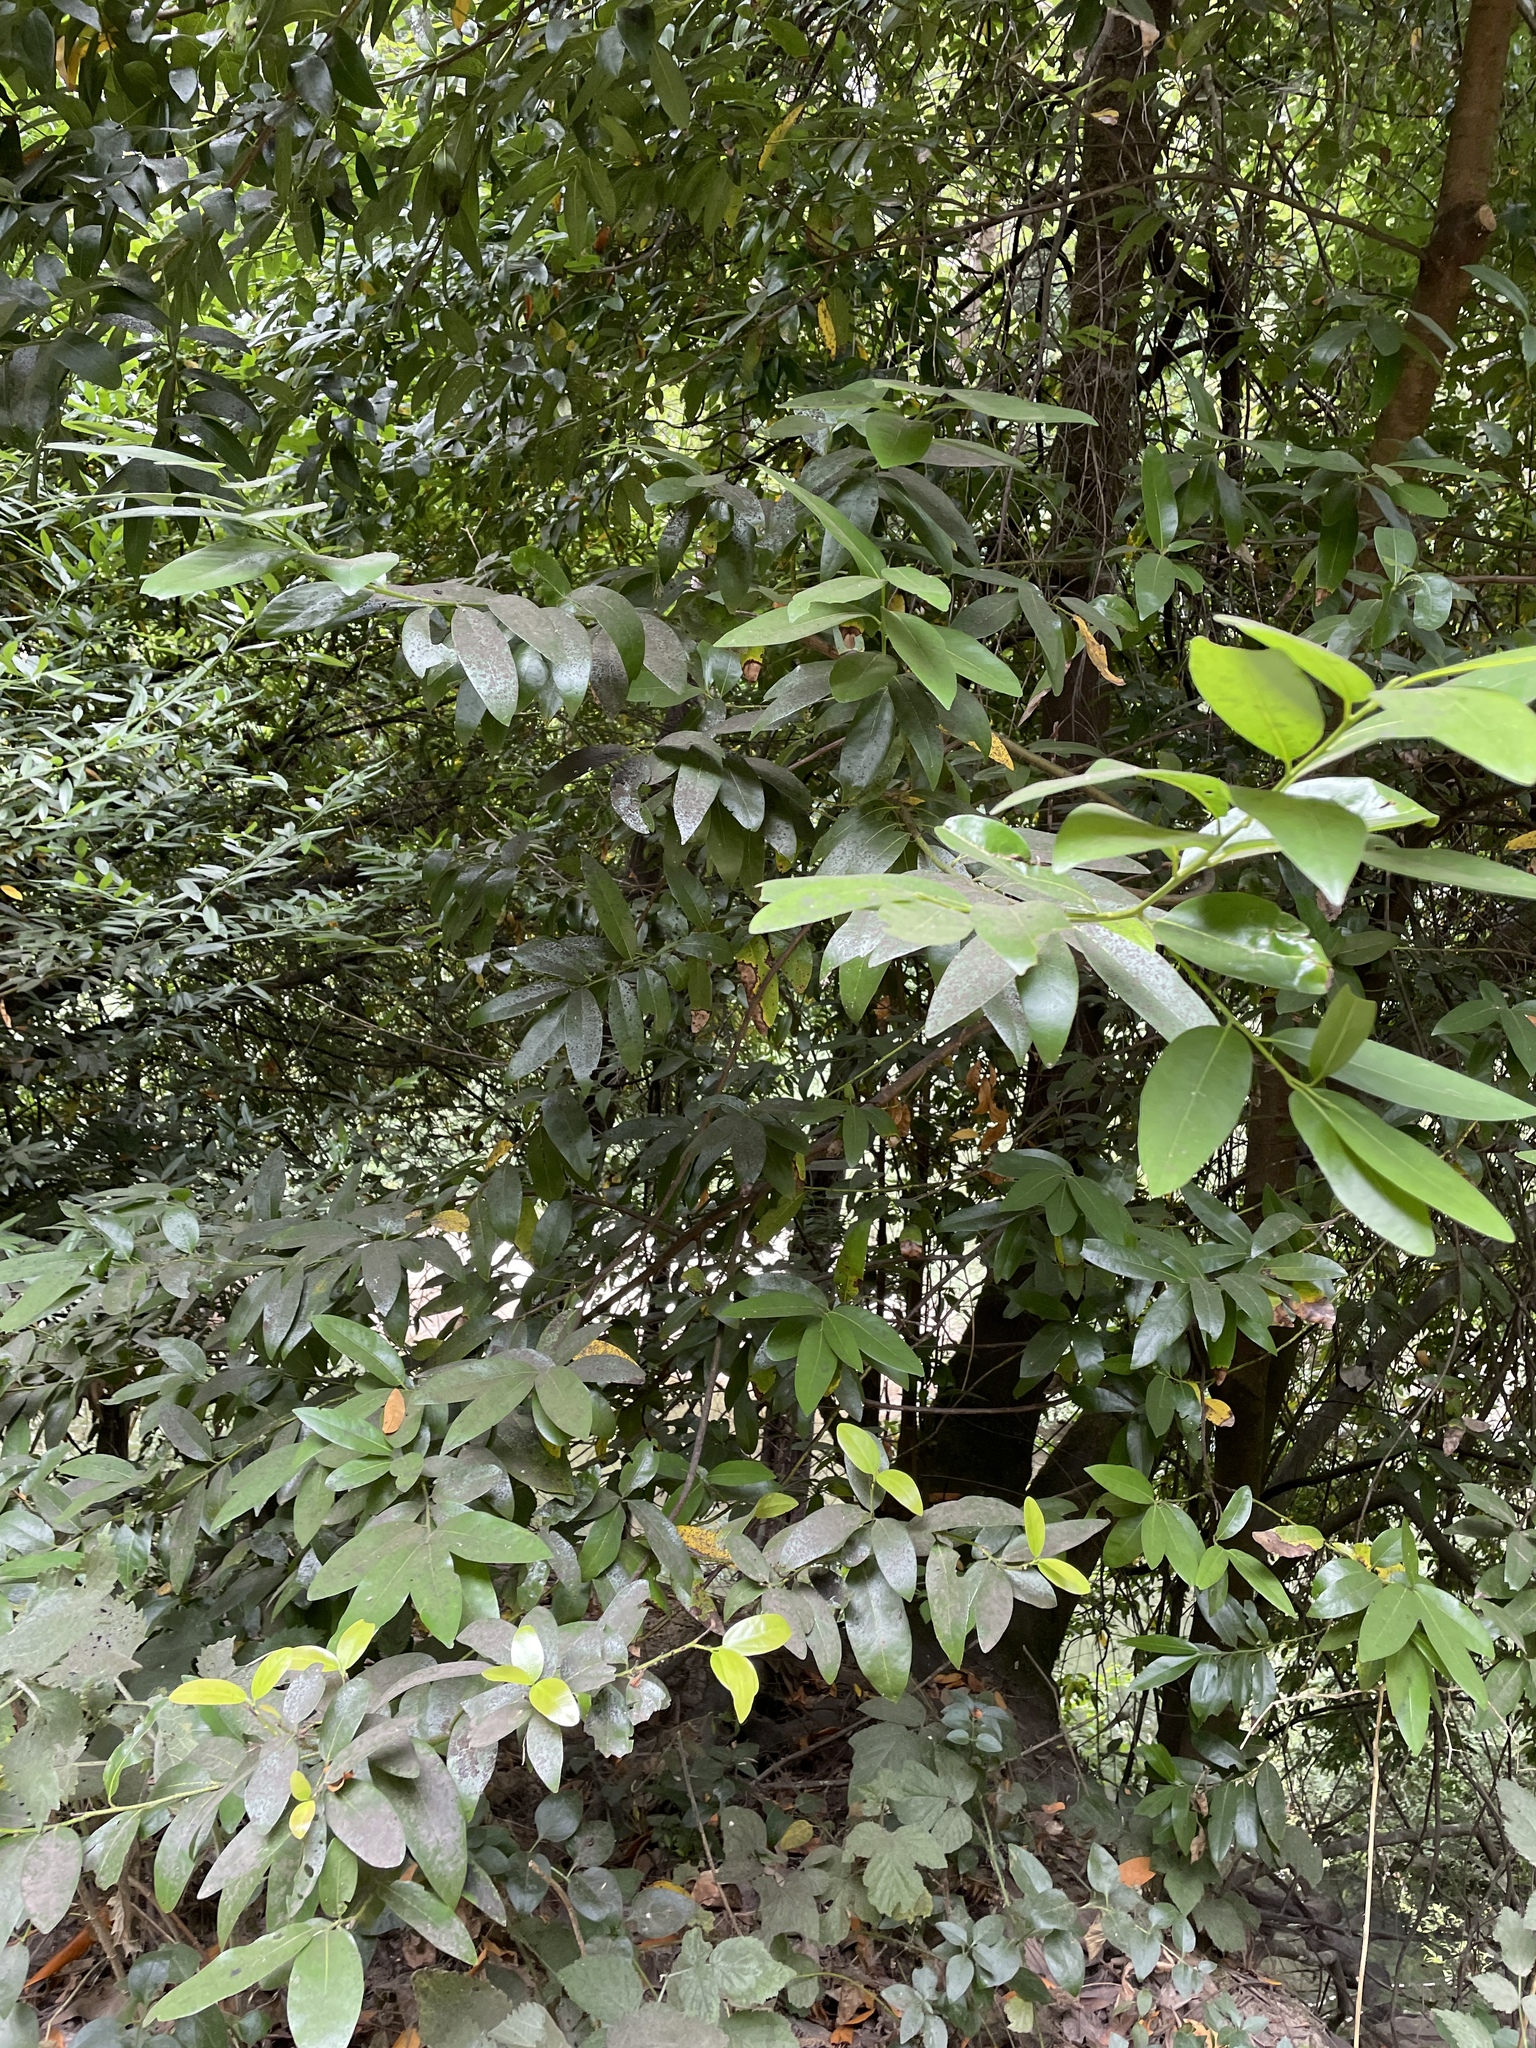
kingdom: Plantae
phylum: Tracheophyta
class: Magnoliopsida
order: Laurales
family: Lauraceae
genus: Umbellularia
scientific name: Umbellularia californica
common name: California bay
